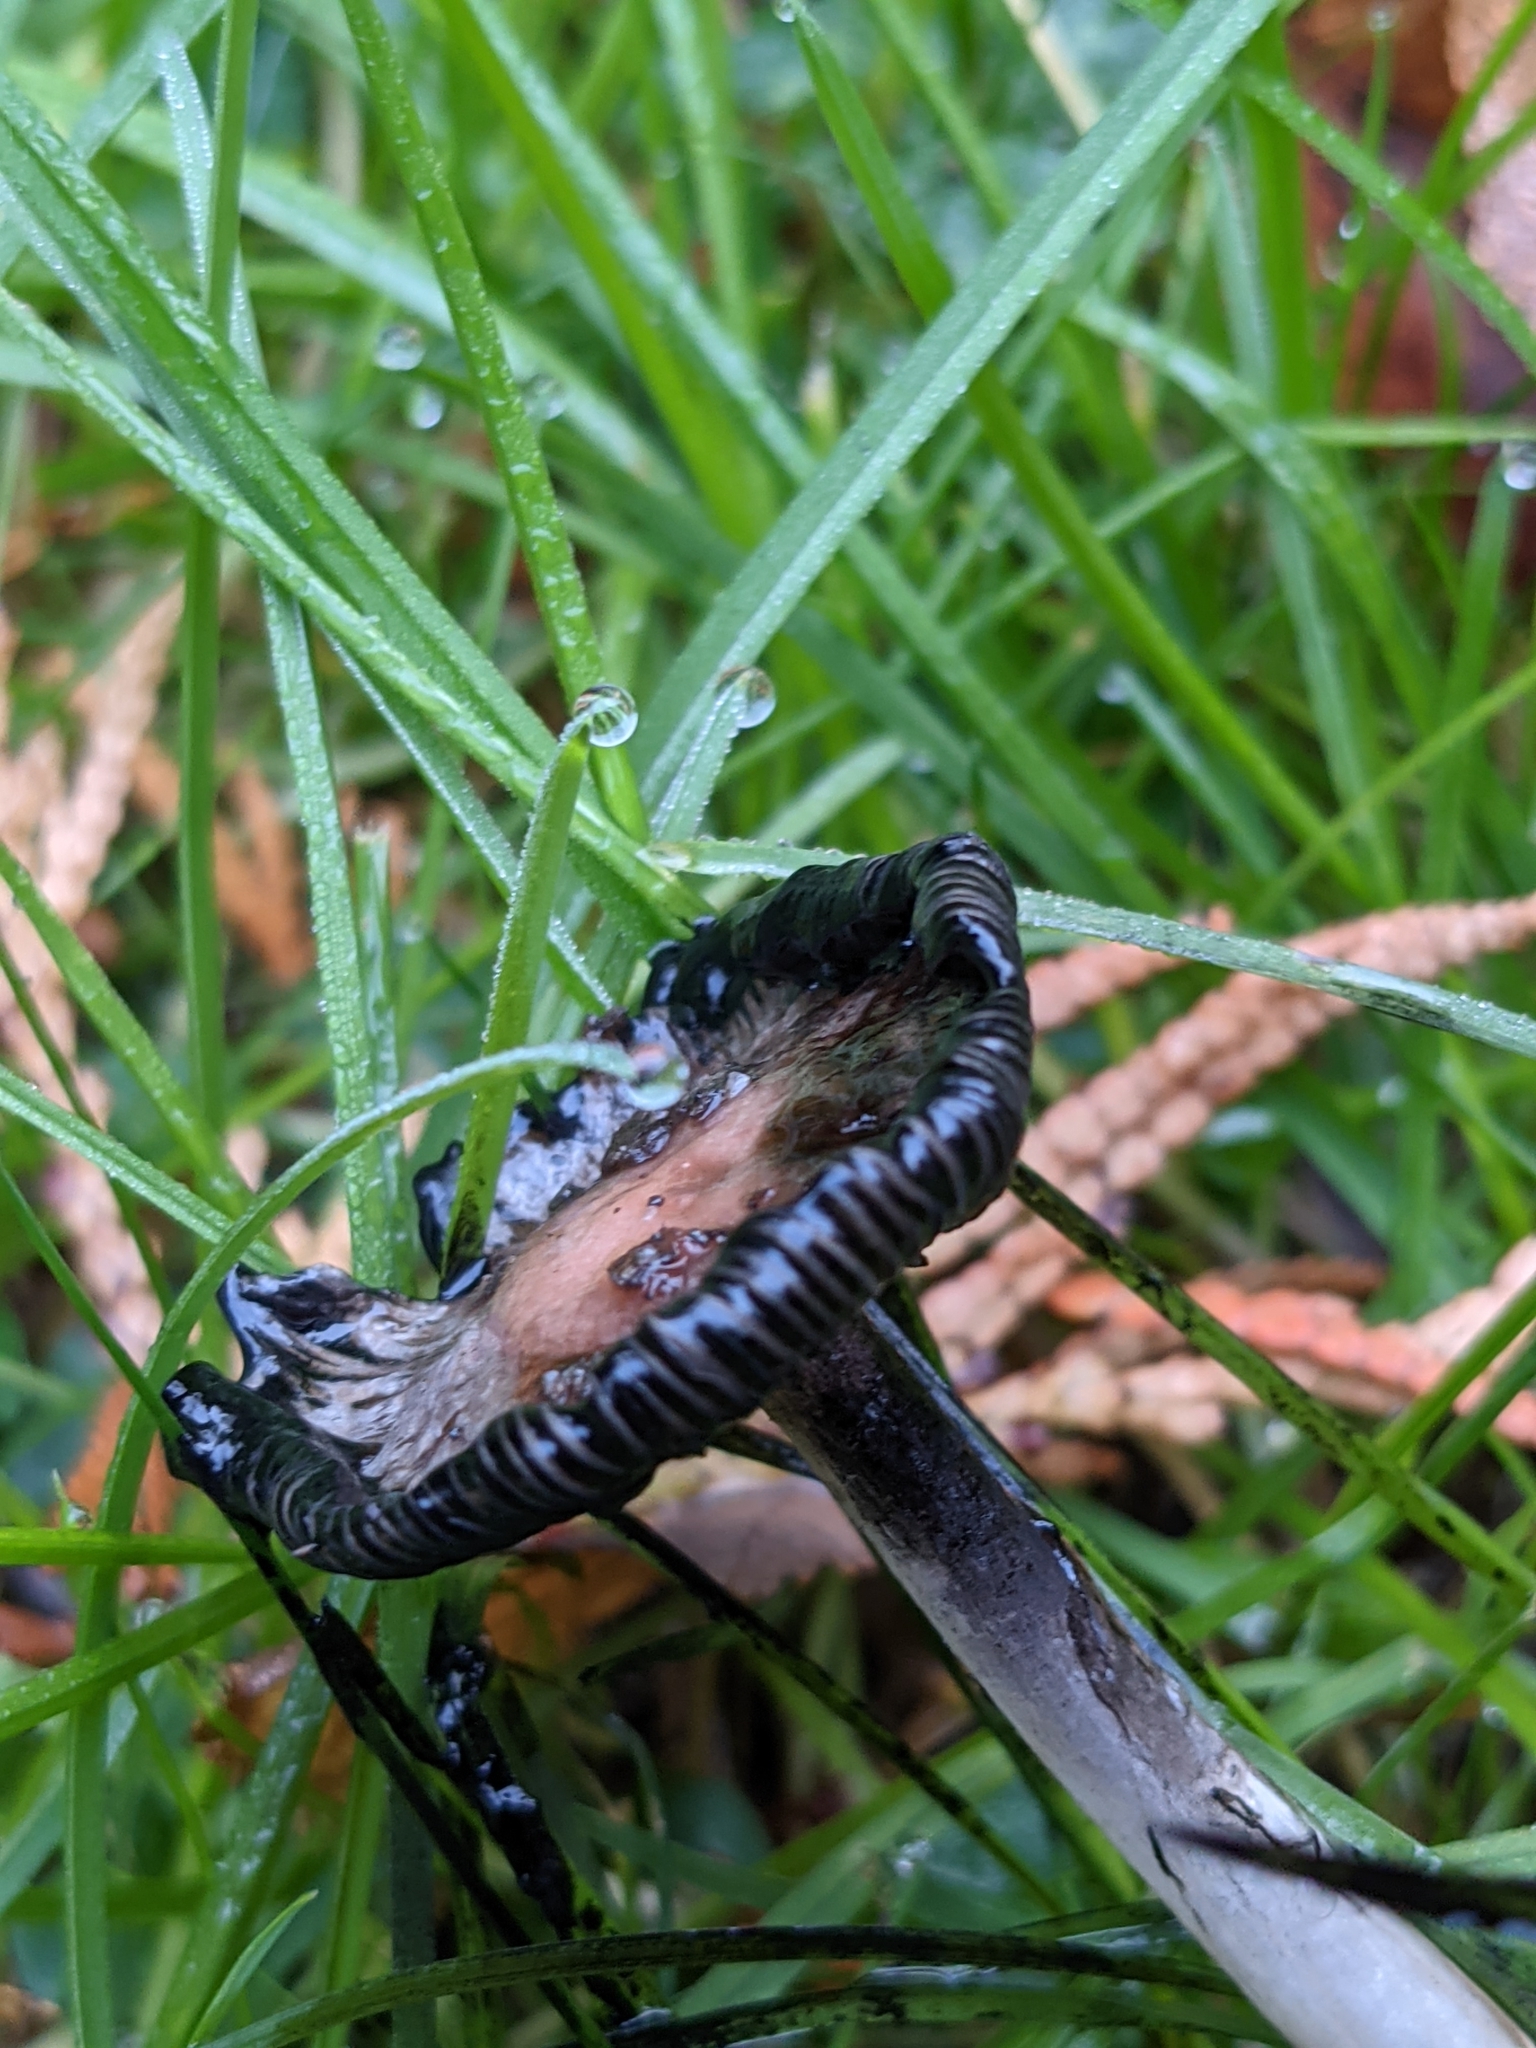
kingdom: Fungi
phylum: Basidiomycota
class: Agaricomycetes
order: Agaricales
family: Agaricaceae
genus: Coprinus
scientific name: Coprinus comatus
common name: Lawyer's wig
